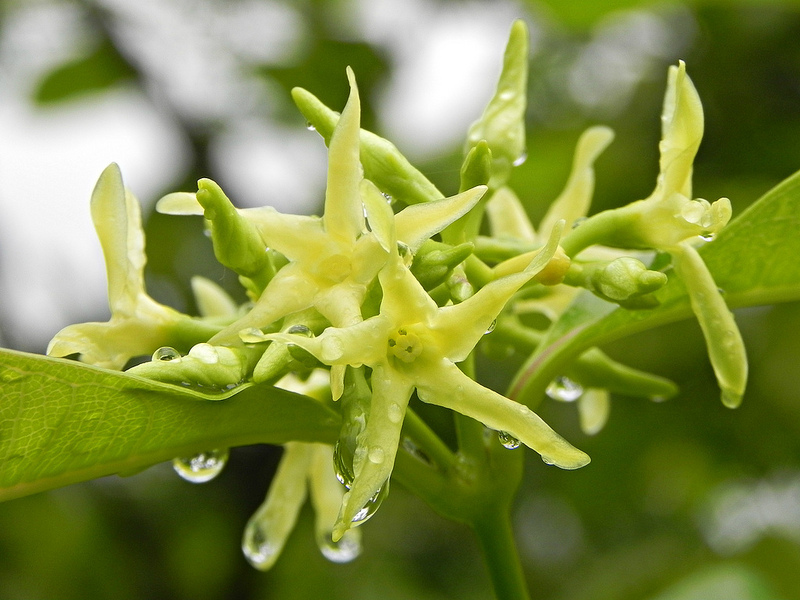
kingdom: Plantae
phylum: Tracheophyta
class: Magnoliopsida
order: Gentianales
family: Apocynaceae
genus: Cryptolepis
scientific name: Cryptolepis buchananii
